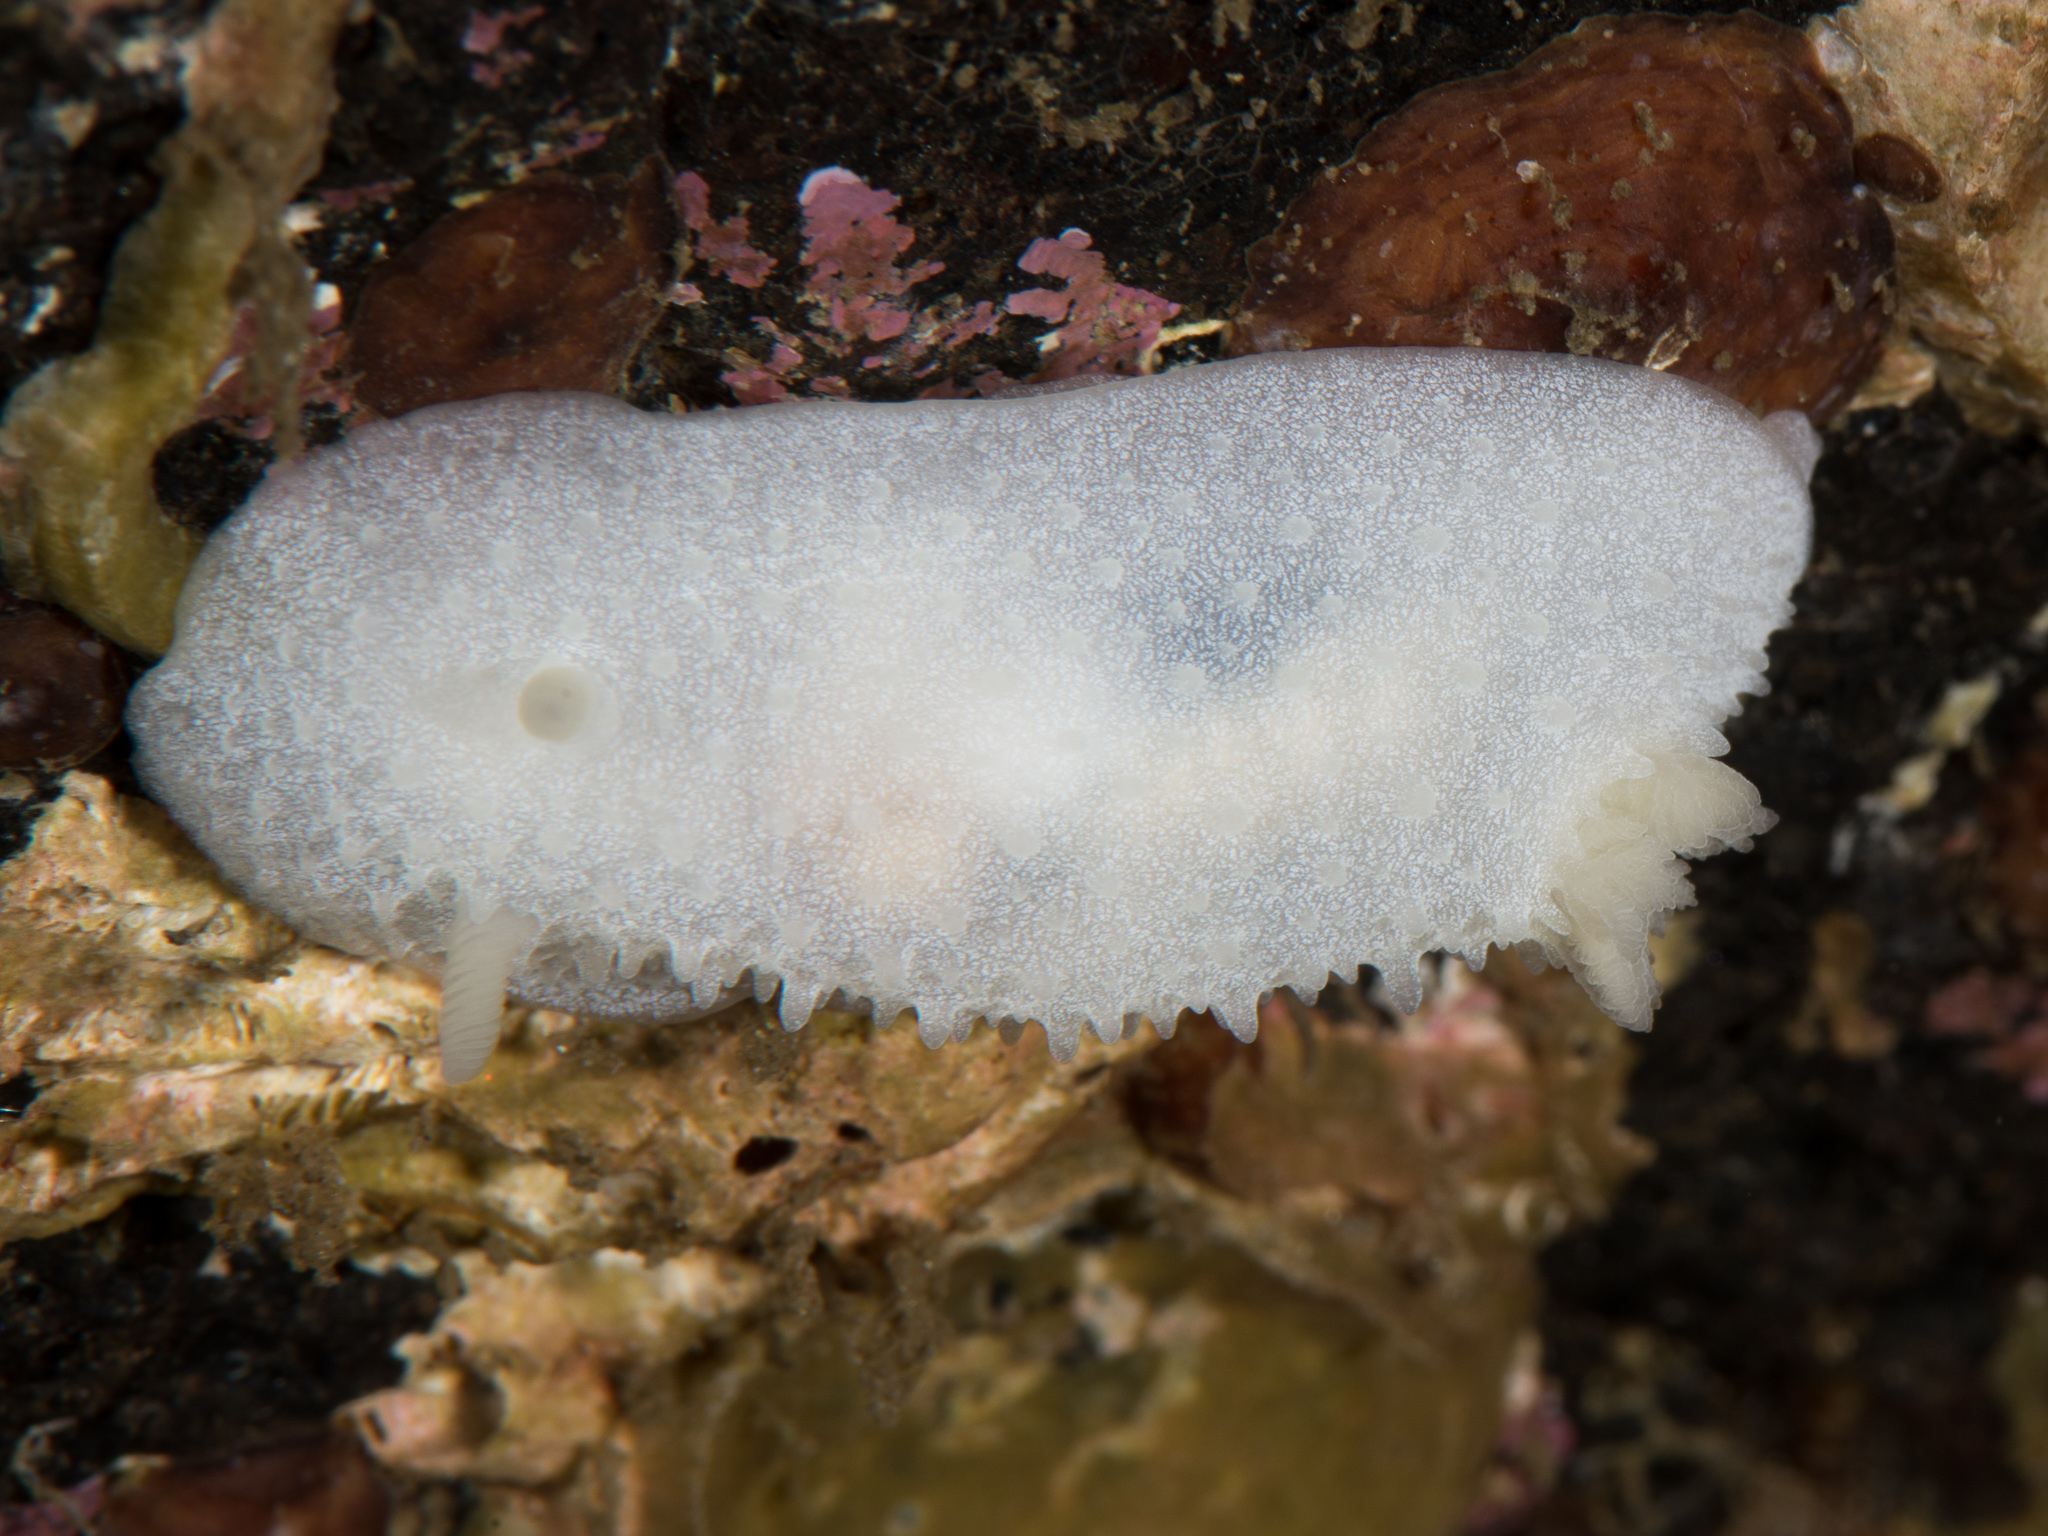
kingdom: Animalia
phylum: Mollusca
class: Gastropoda
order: Nudibranchia
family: Cadlinidae
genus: Aldisa
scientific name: Aldisa zetlandica
